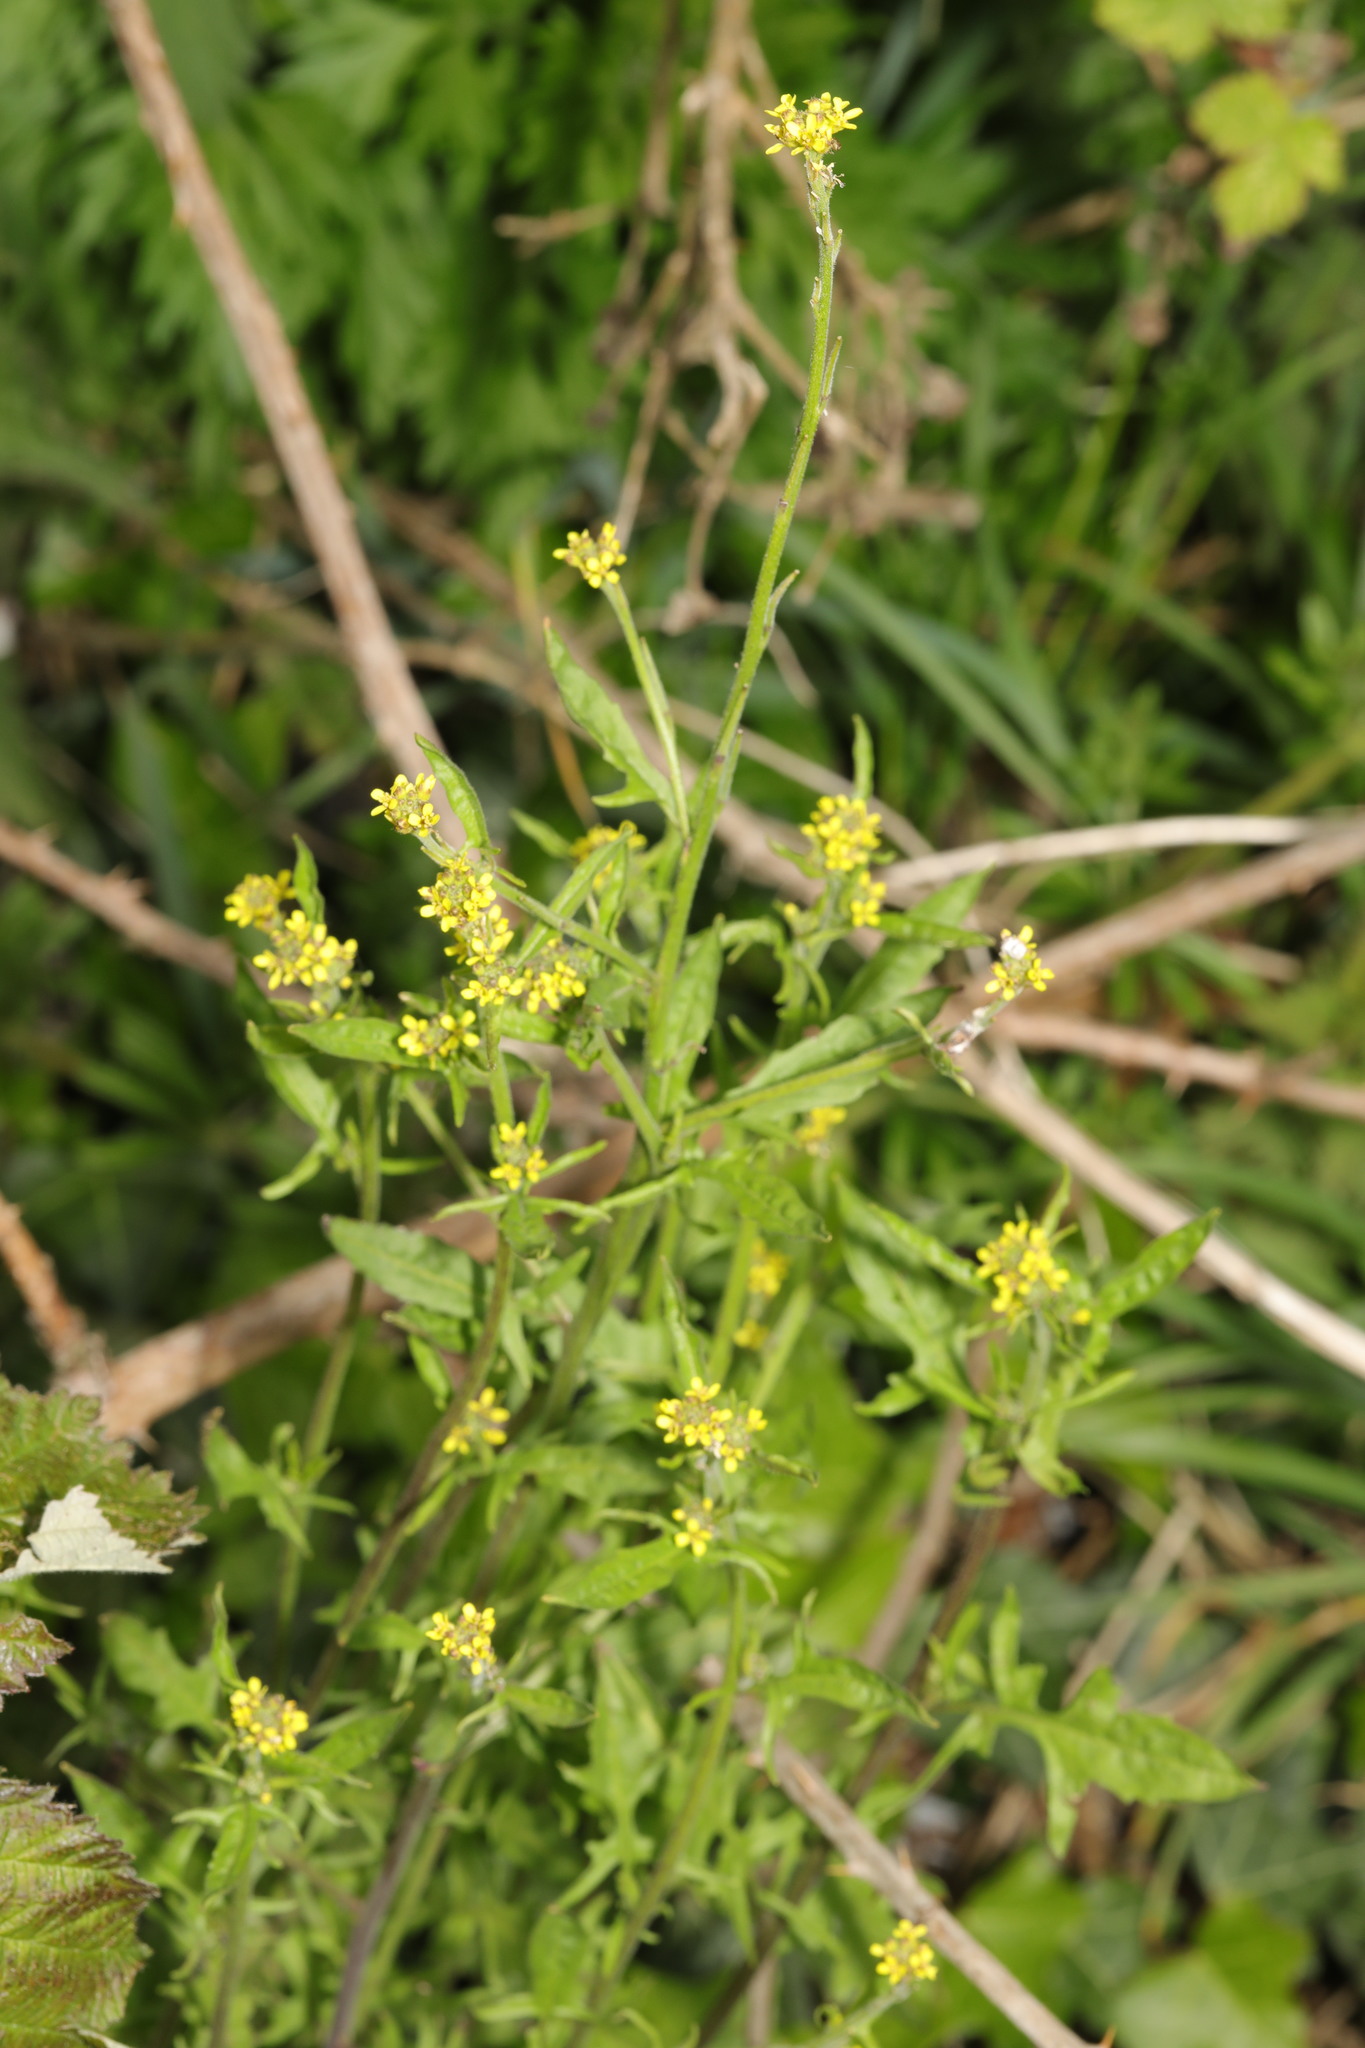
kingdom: Plantae
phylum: Tracheophyta
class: Magnoliopsida
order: Brassicales
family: Brassicaceae
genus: Sisymbrium
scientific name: Sisymbrium officinale
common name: Hedge mustard
